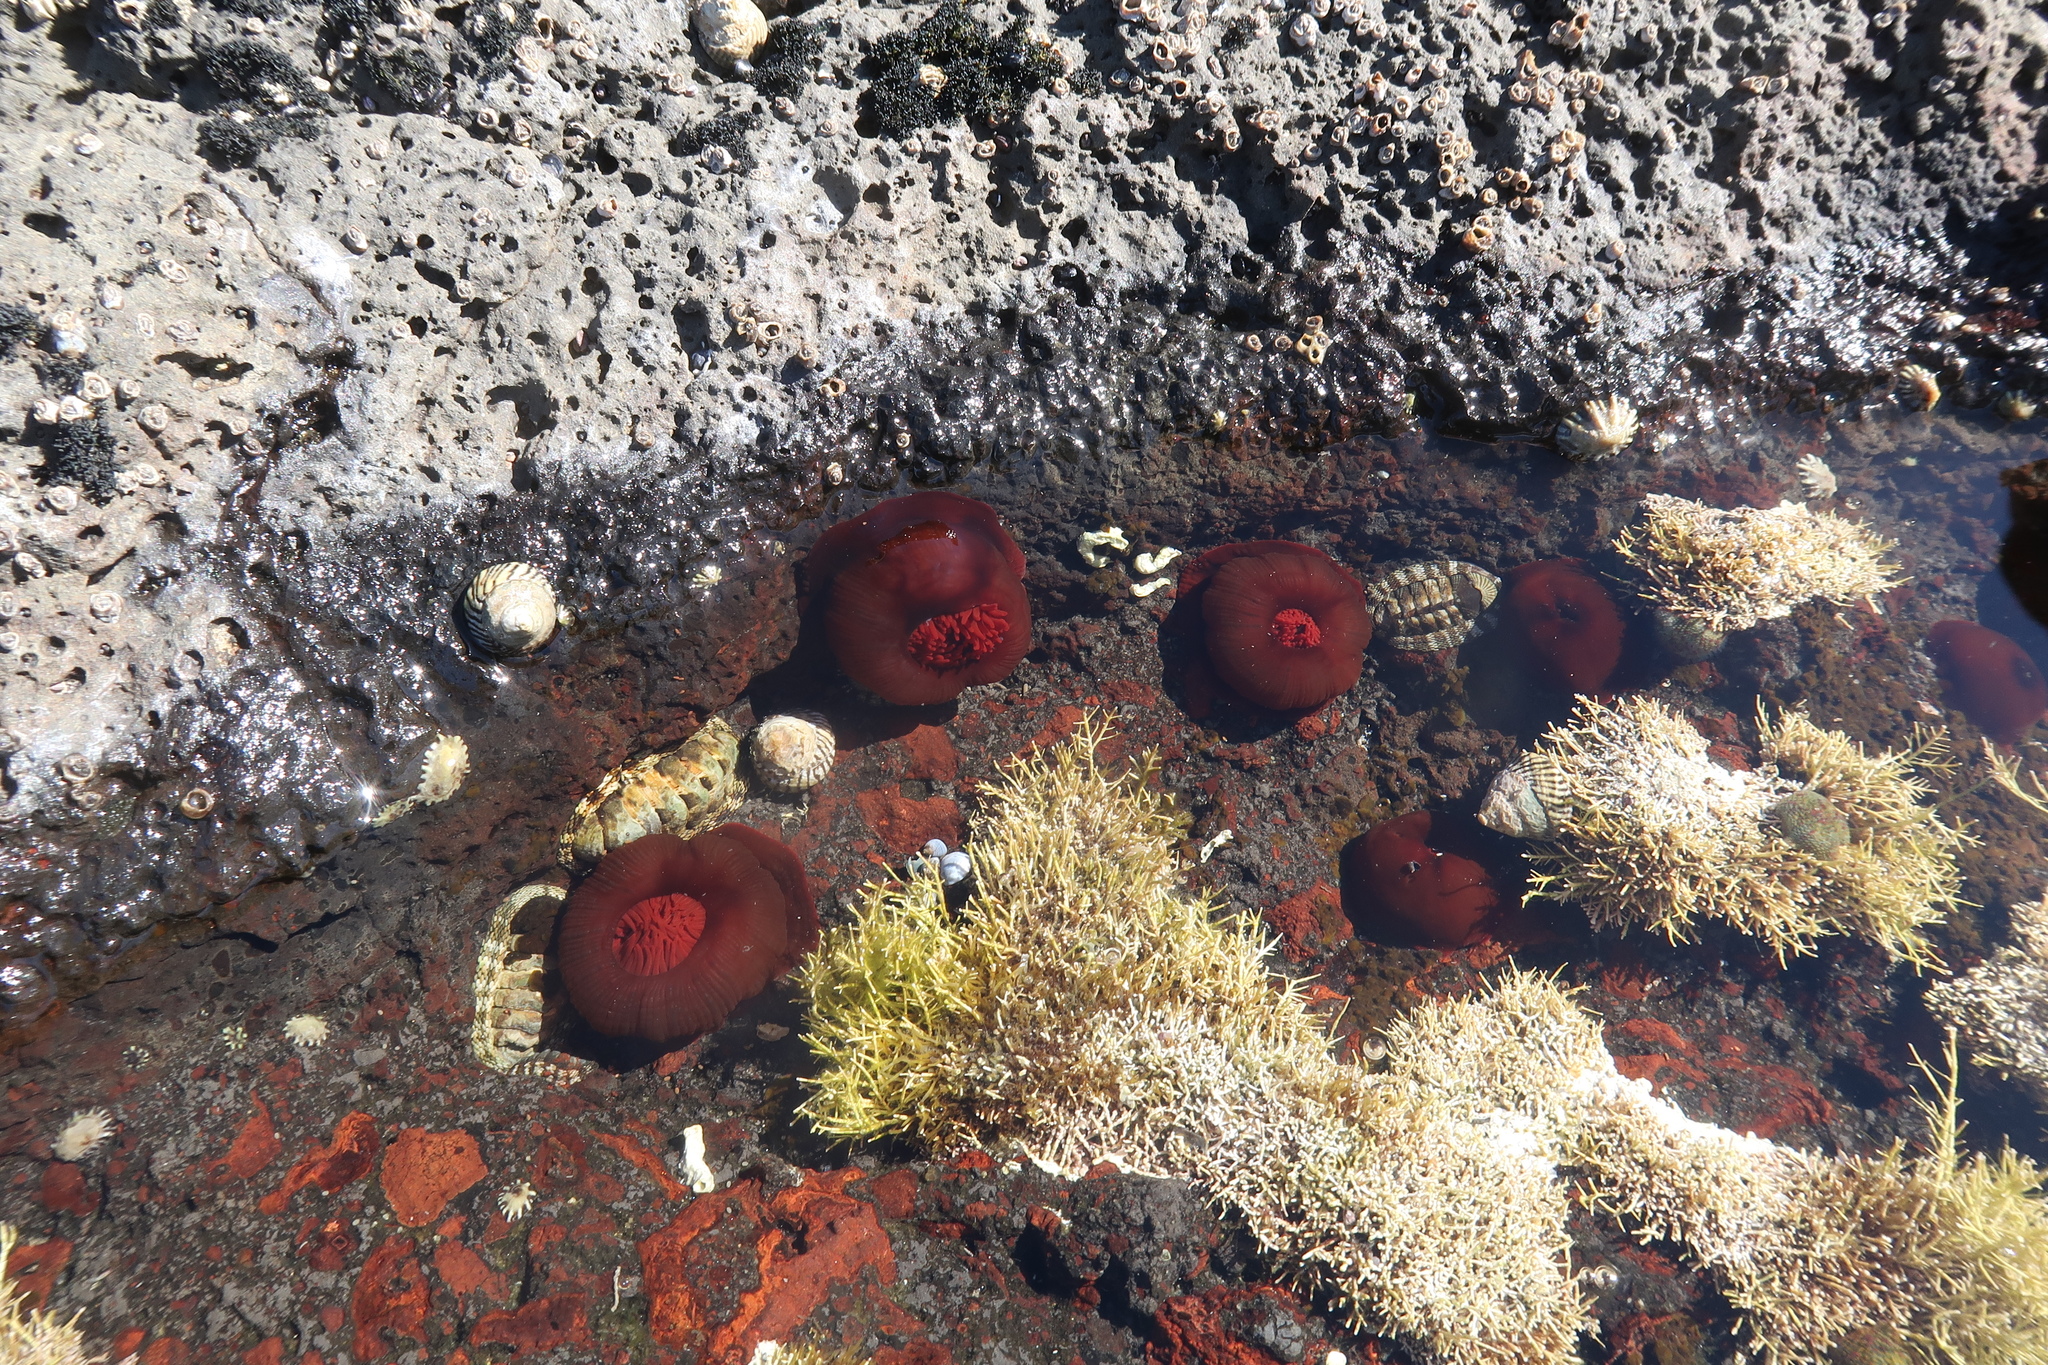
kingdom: Animalia
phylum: Cnidaria
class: Anthozoa
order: Actiniaria
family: Actiniidae
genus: Actinia
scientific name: Actinia tenebrosa
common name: Waratah anemone
